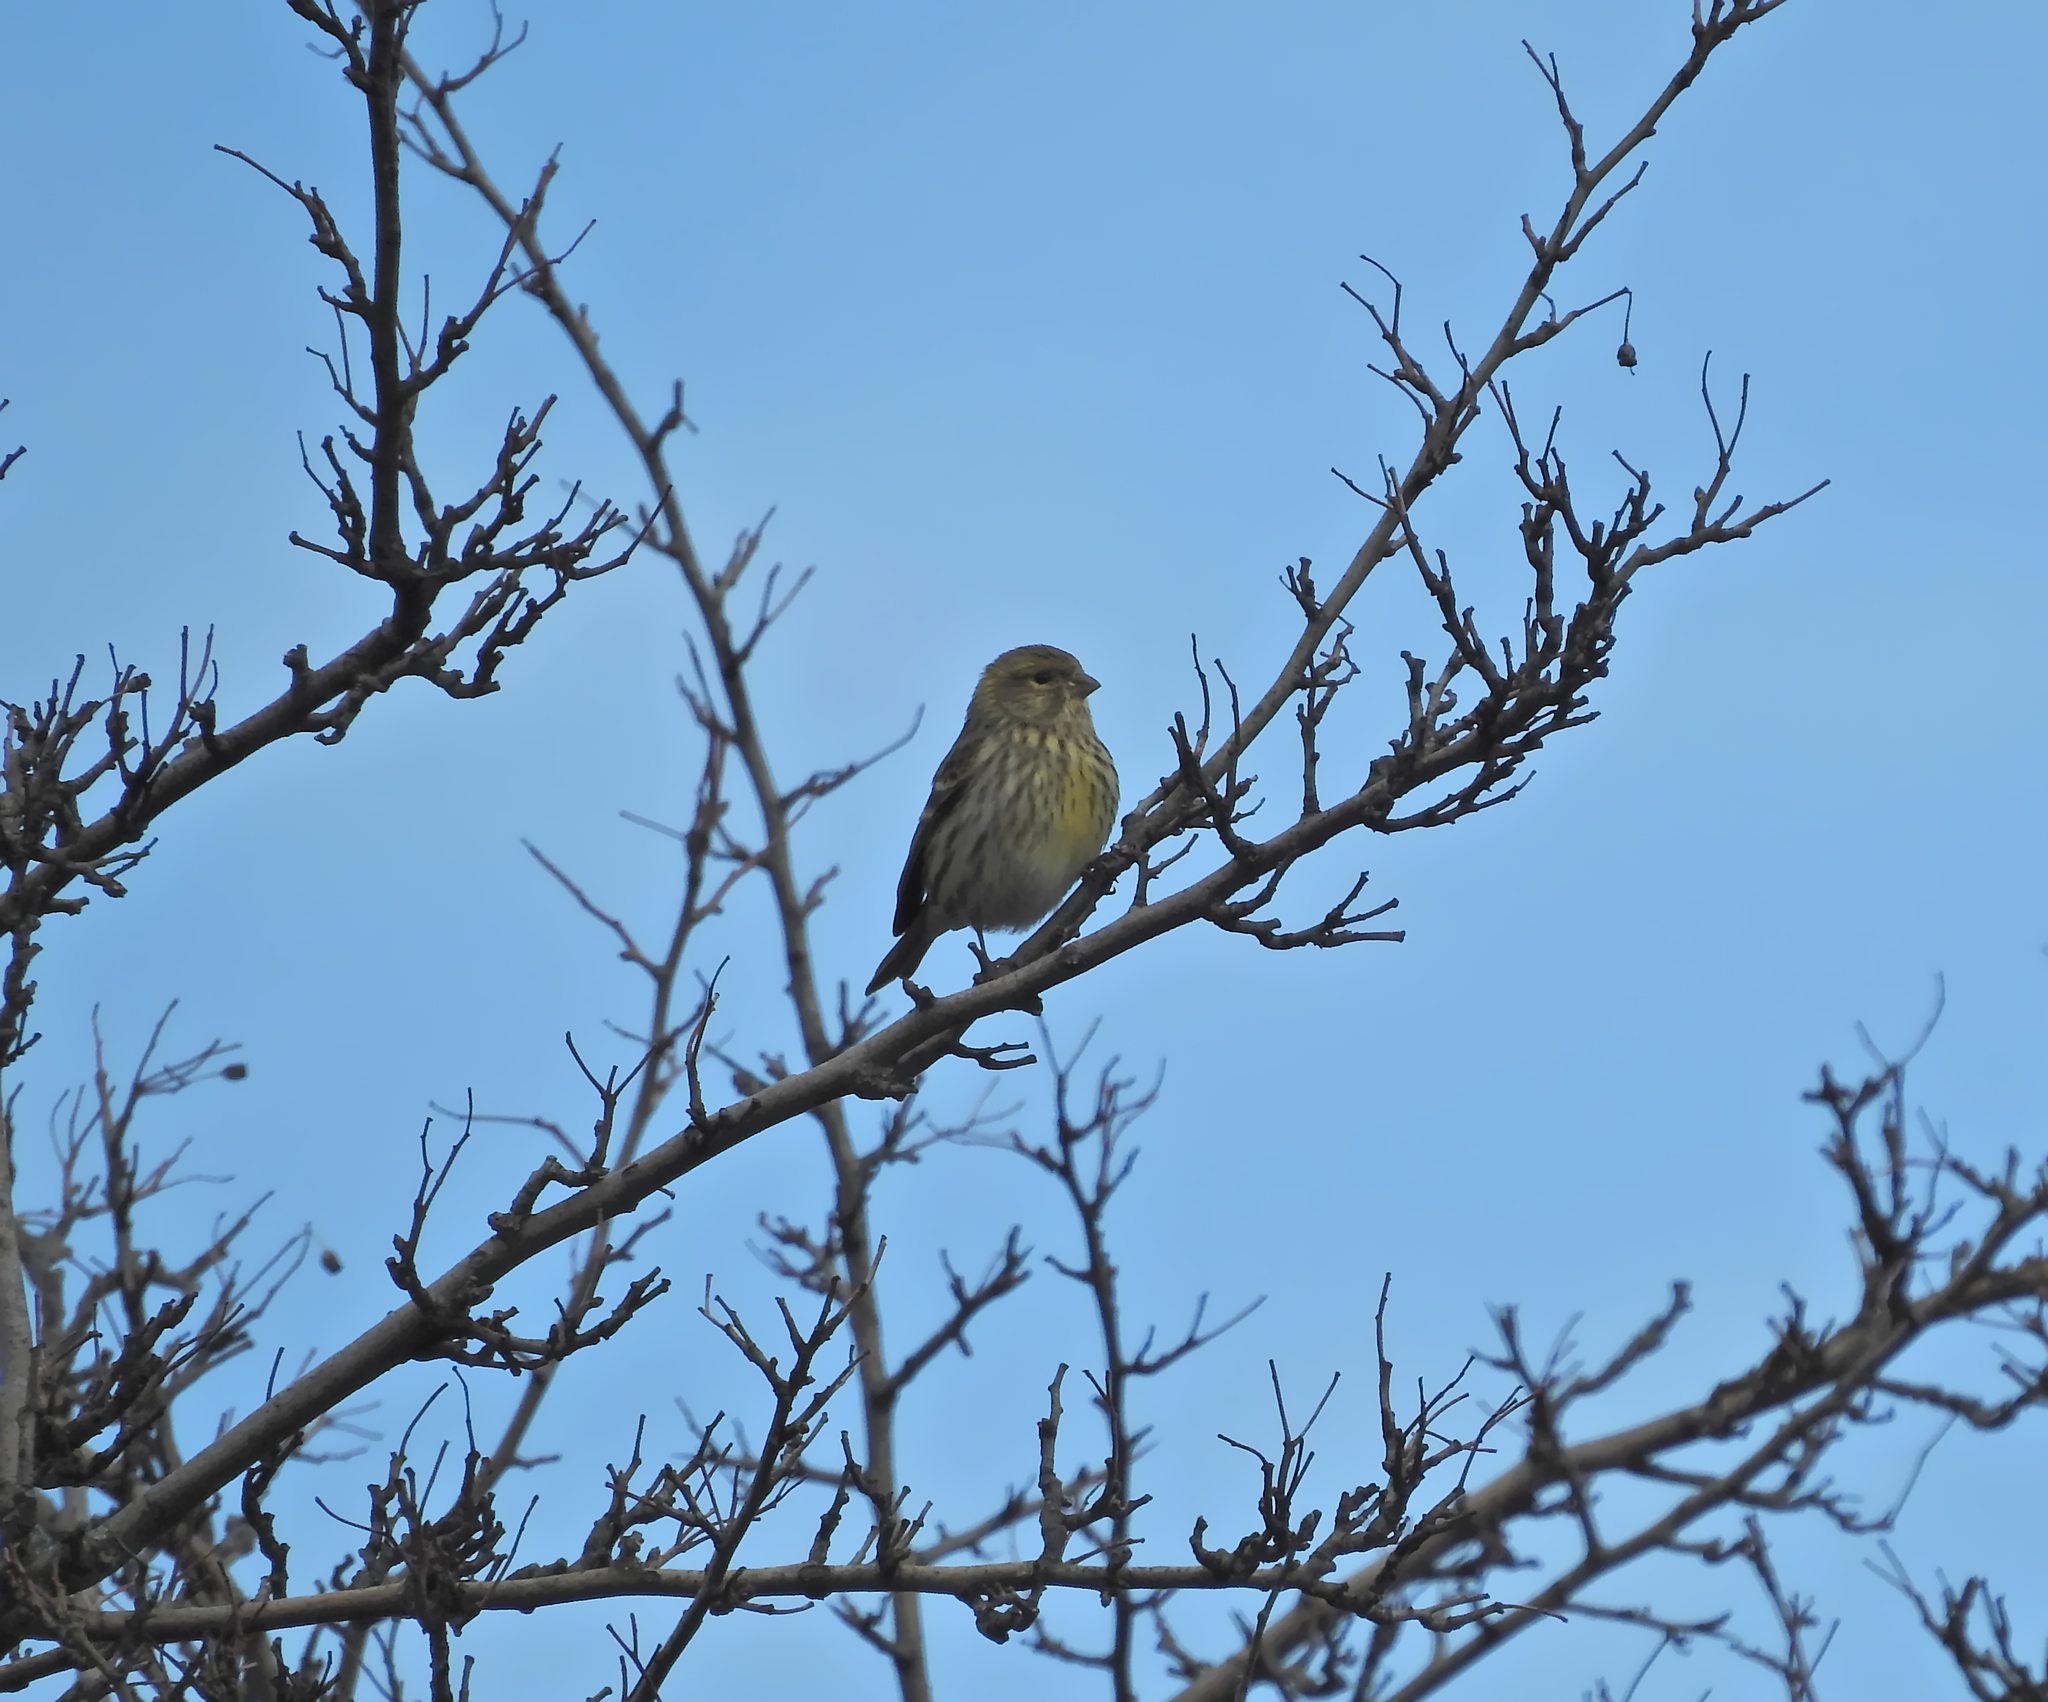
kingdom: Animalia
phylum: Chordata
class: Aves
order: Passeriformes
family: Fringillidae
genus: Serinus
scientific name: Serinus serinus
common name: European serin
